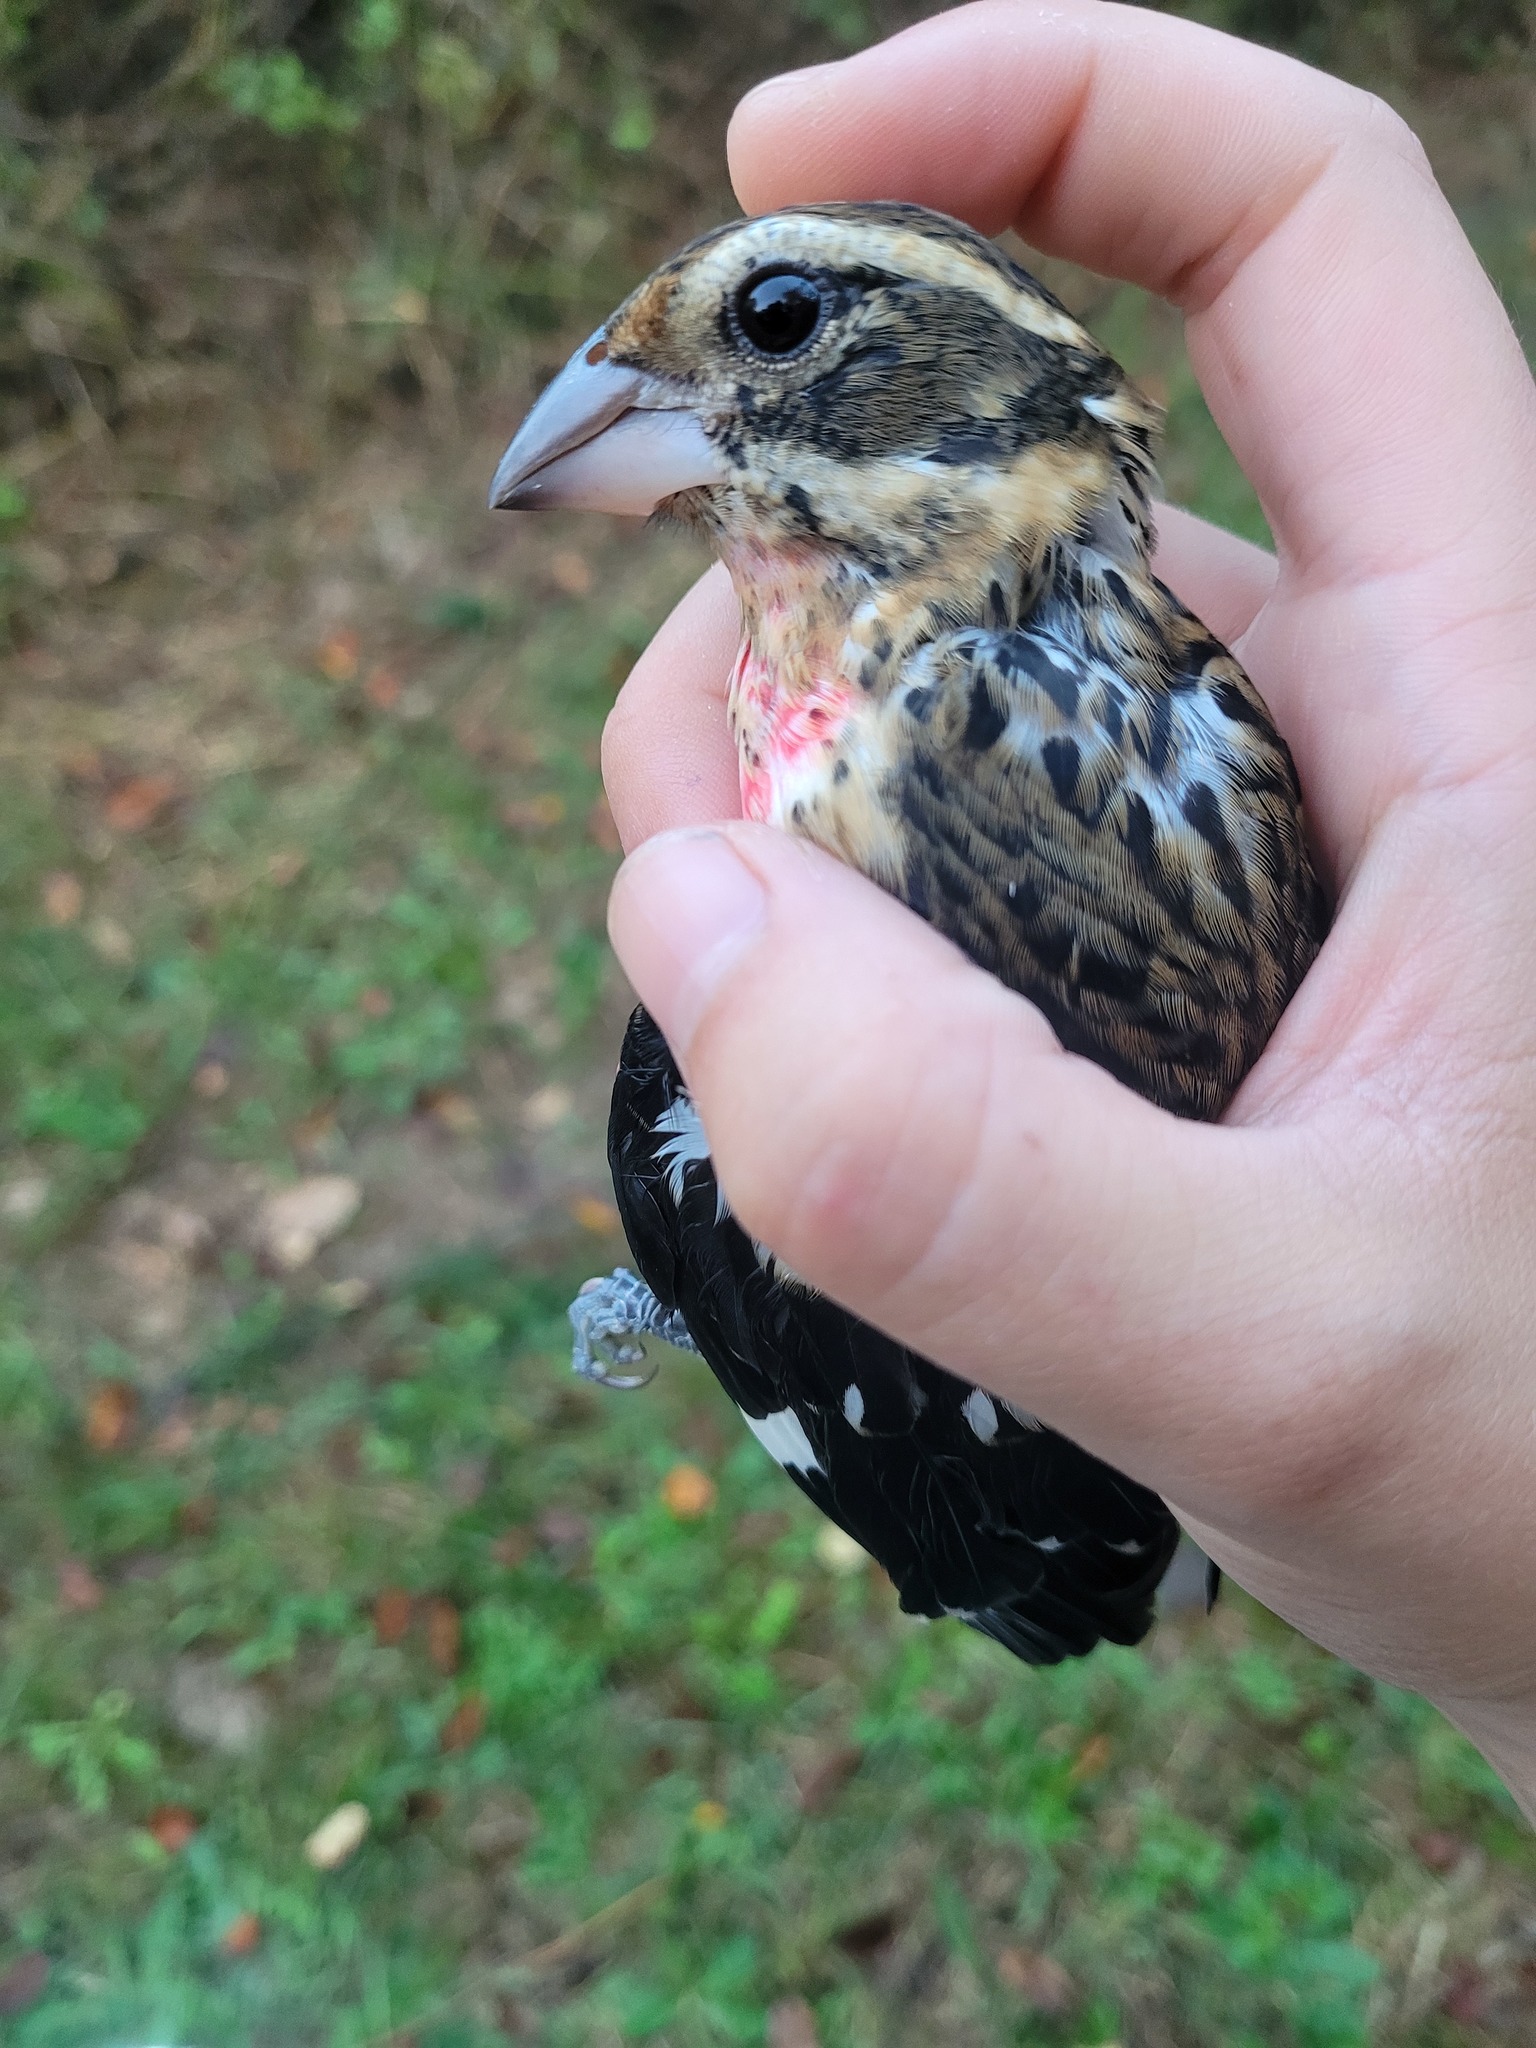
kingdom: Animalia
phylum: Chordata
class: Aves
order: Passeriformes
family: Cardinalidae
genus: Pheucticus
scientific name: Pheucticus ludovicianus
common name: Rose-breasted grosbeak
